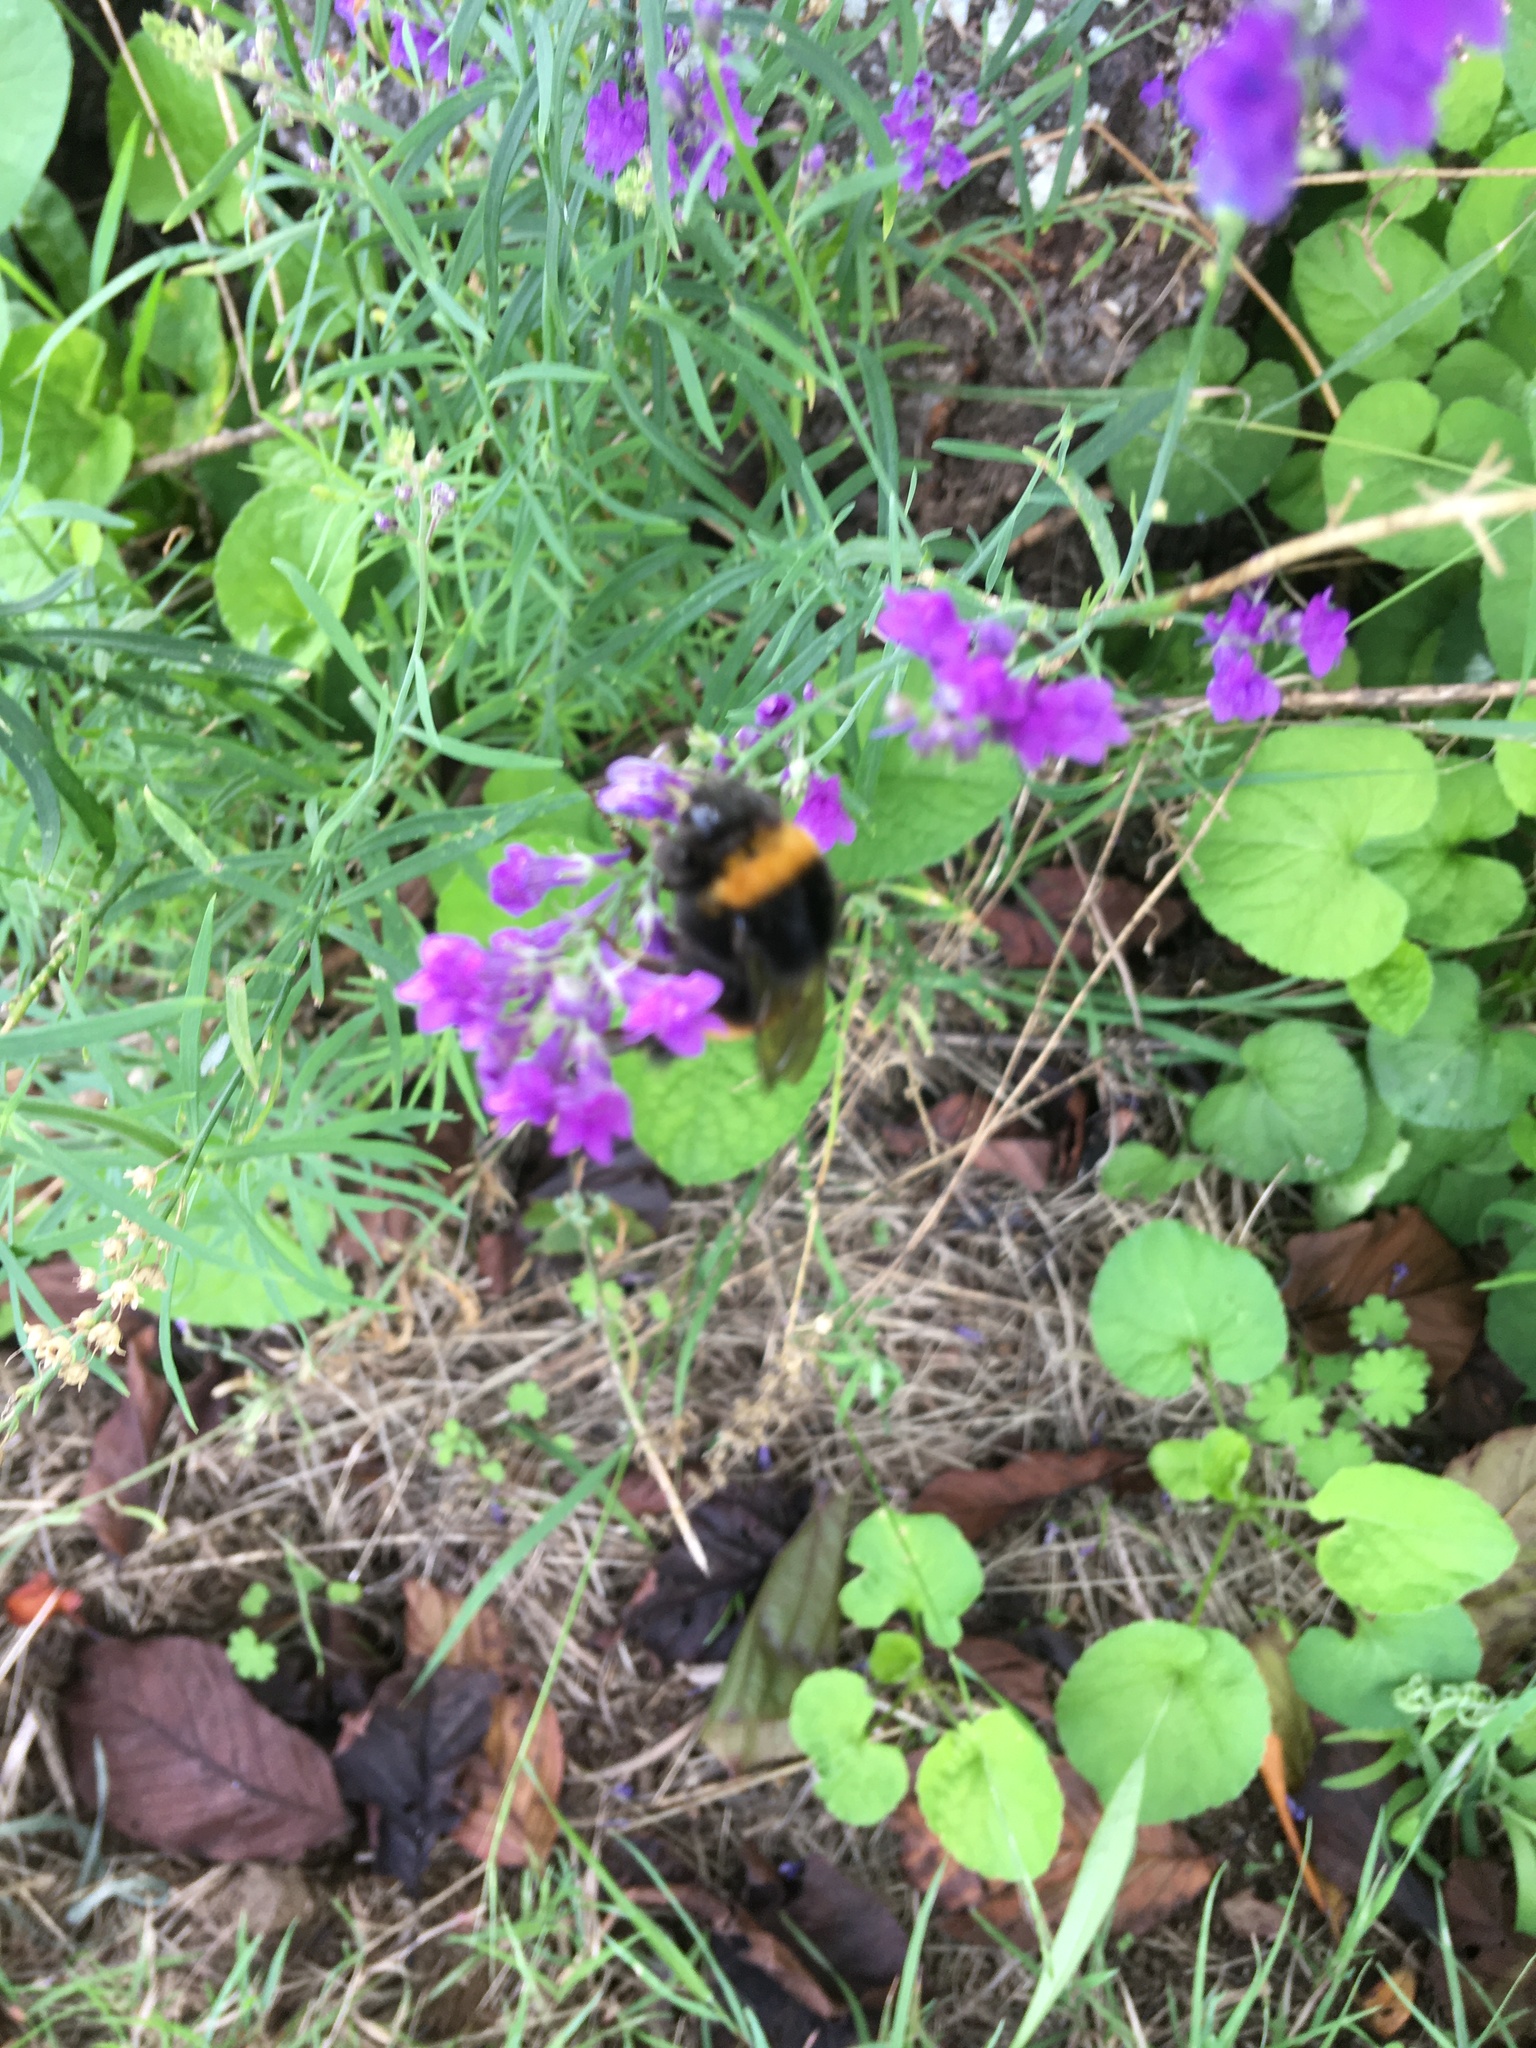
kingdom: Animalia
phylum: Arthropoda
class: Insecta
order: Hymenoptera
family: Apidae
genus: Bombus
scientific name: Bombus terrestris
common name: Buff-tailed bumblebee
